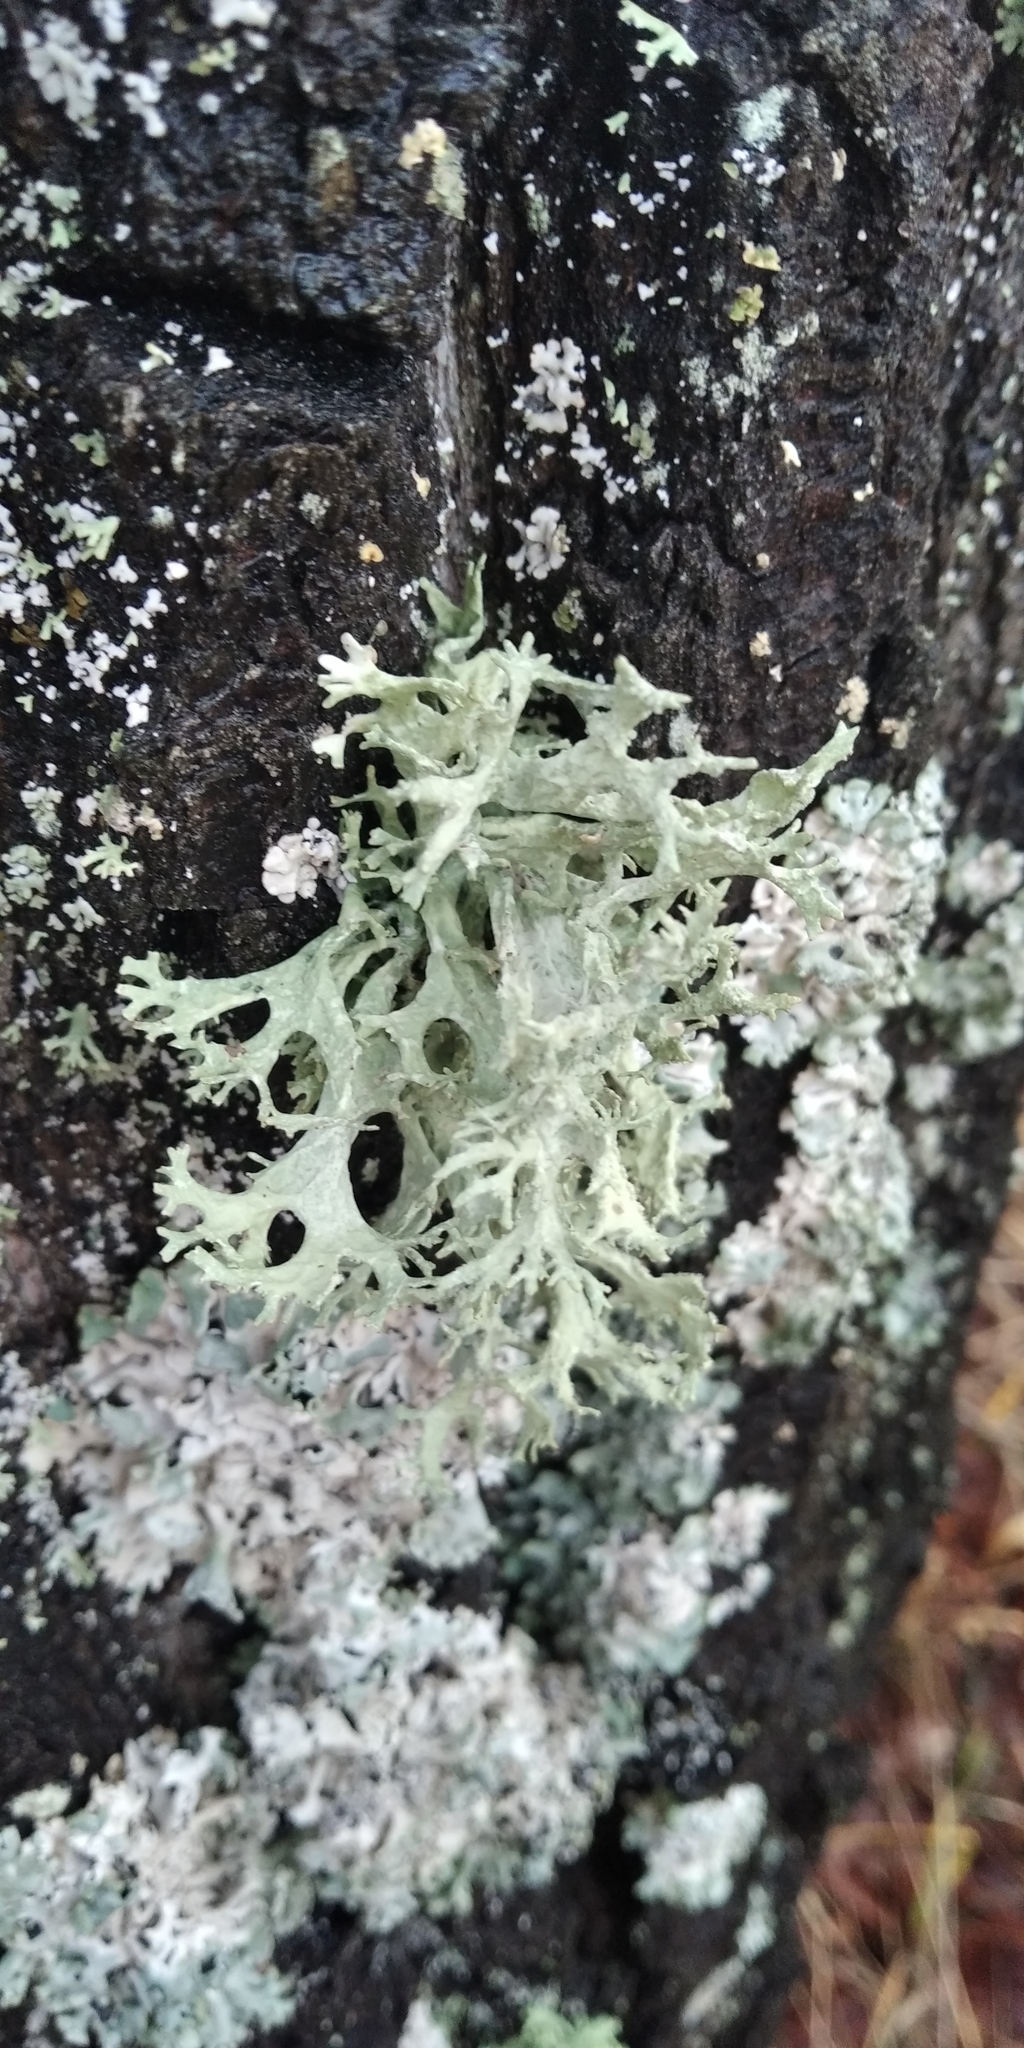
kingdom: Fungi
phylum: Ascomycota
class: Lecanoromycetes
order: Lecanorales
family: Parmeliaceae
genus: Evernia
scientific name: Evernia prunastri
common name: Oak moss
